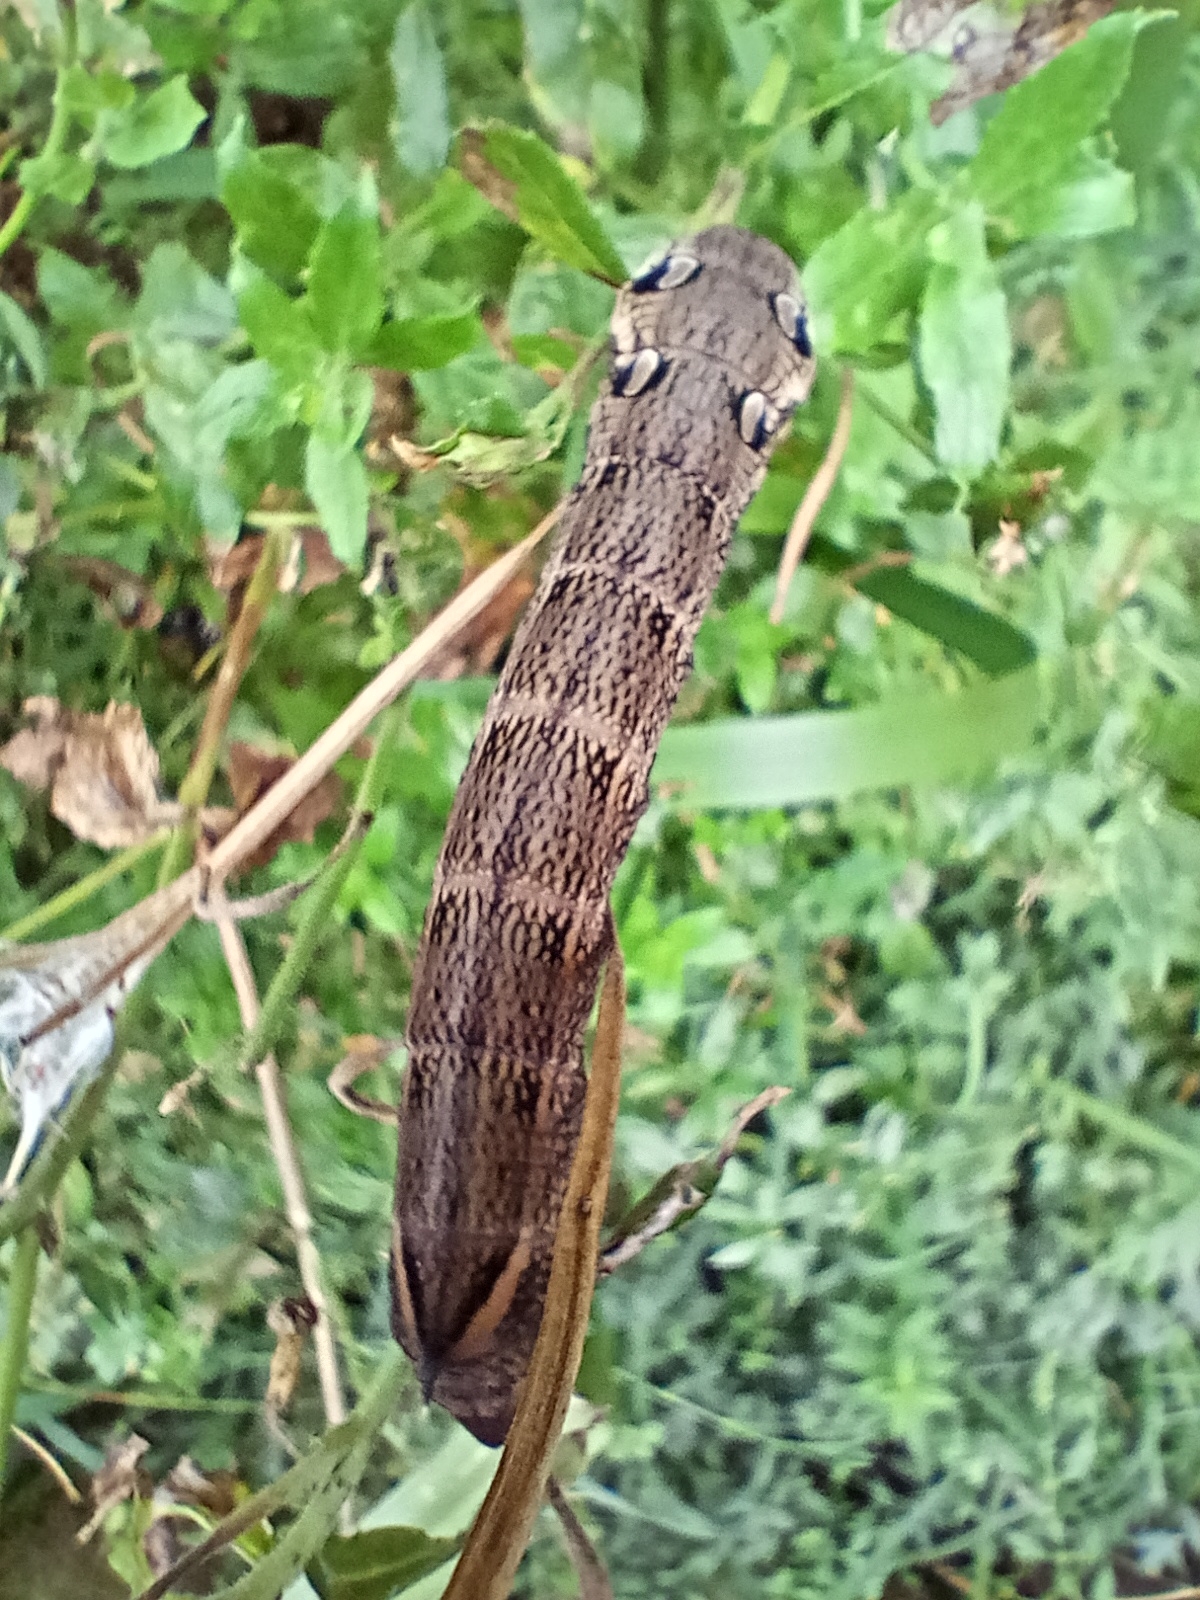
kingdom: Animalia
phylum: Arthropoda
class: Insecta
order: Lepidoptera
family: Sphingidae
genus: Deilephila
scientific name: Deilephila elpenor
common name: Elephant hawk-moth
